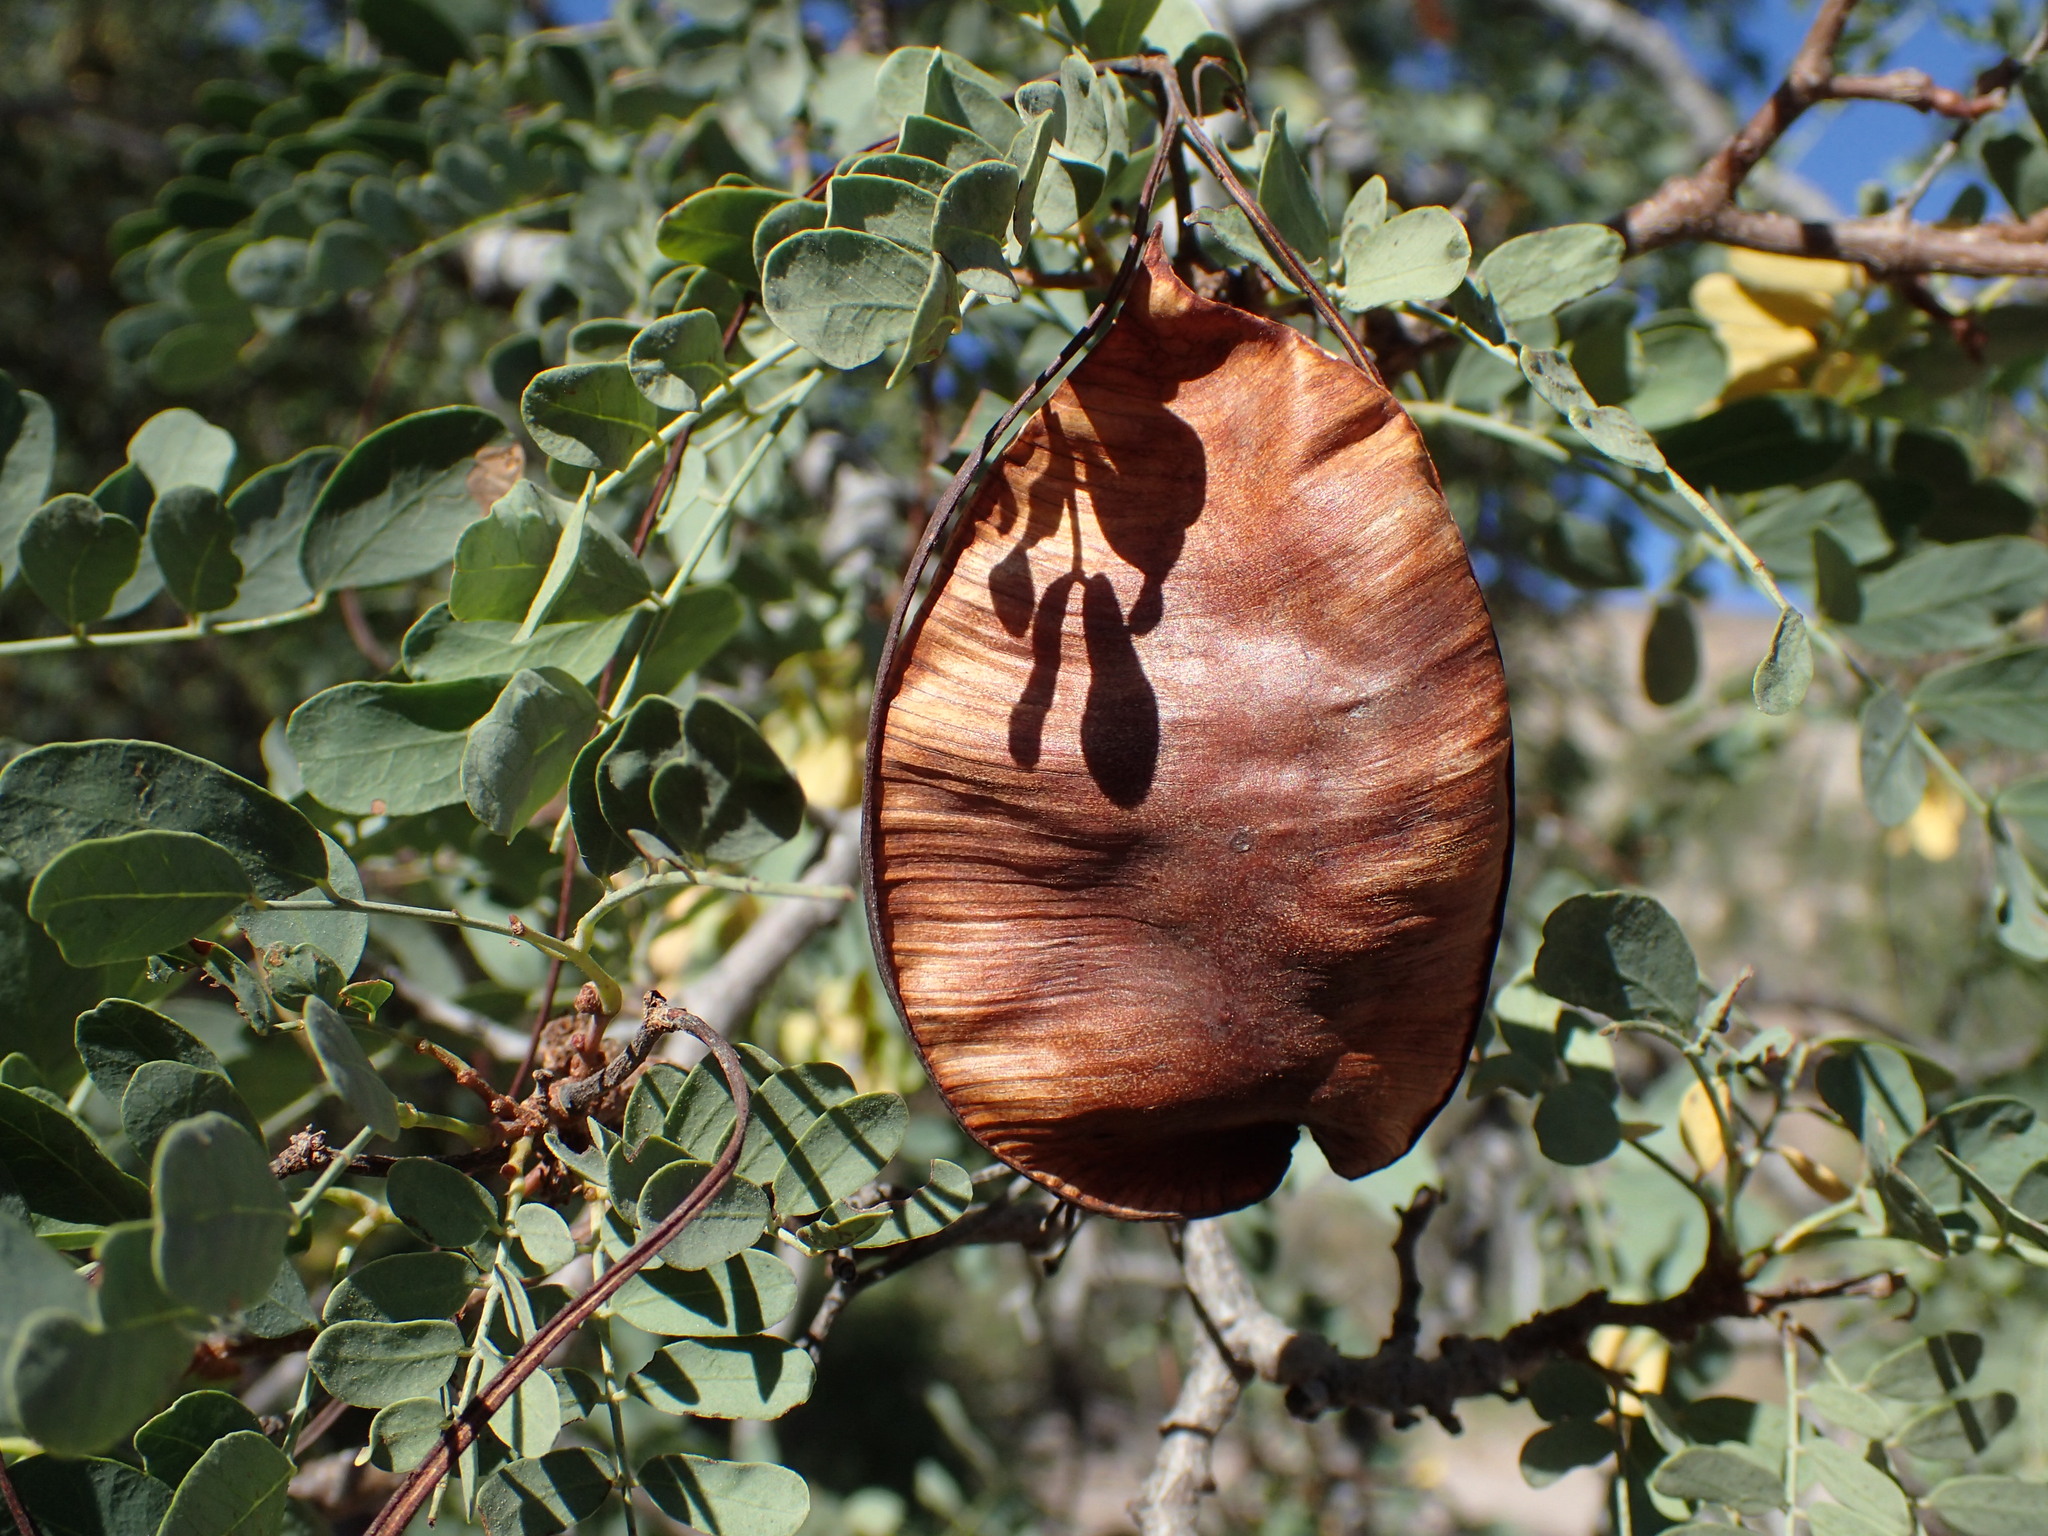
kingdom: Plantae
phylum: Tracheophyta
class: Magnoliopsida
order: Fabales
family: Fabaceae
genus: Lysiloma
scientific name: Lysiloma candidum
